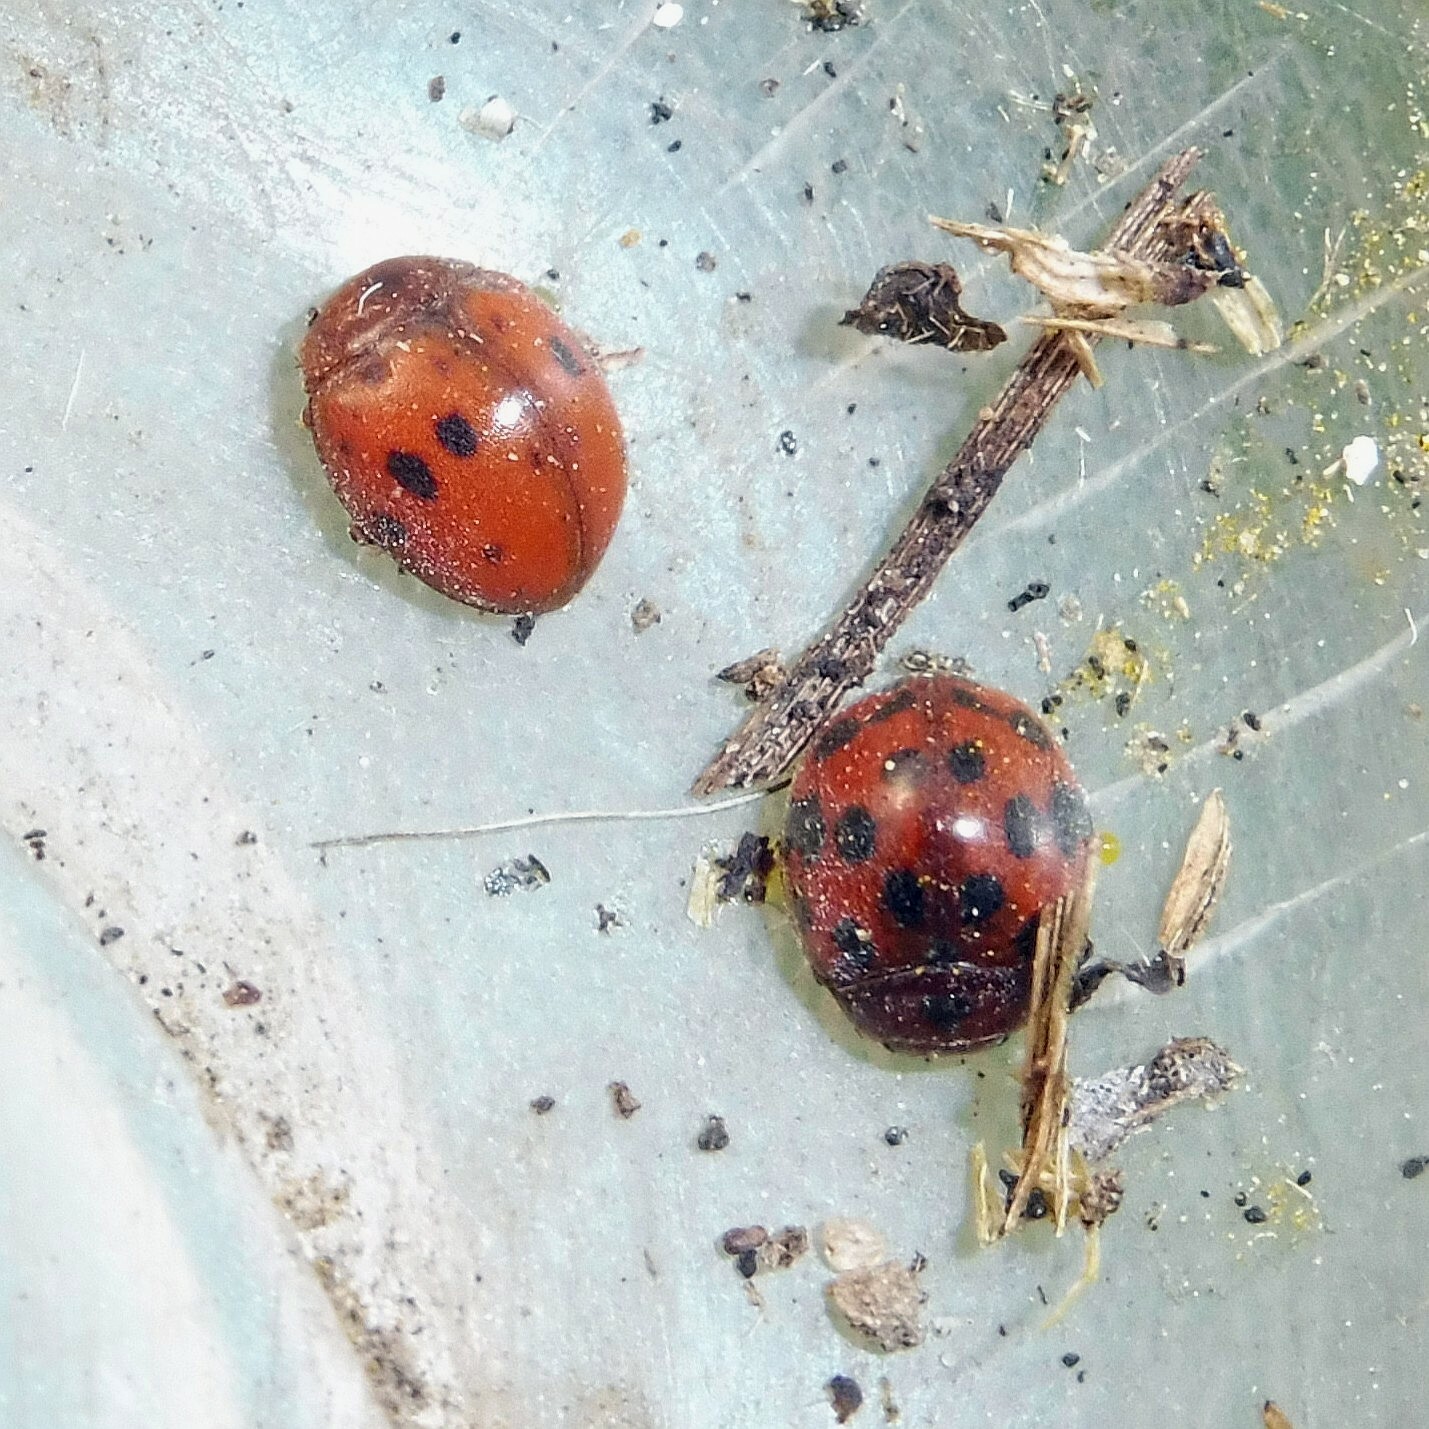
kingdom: Animalia
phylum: Arthropoda
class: Insecta
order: Coleoptera
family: Coccinellidae
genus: Subcoccinella
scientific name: Subcoccinella vigintiquatuorpunctata
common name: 24-spot ladybird
